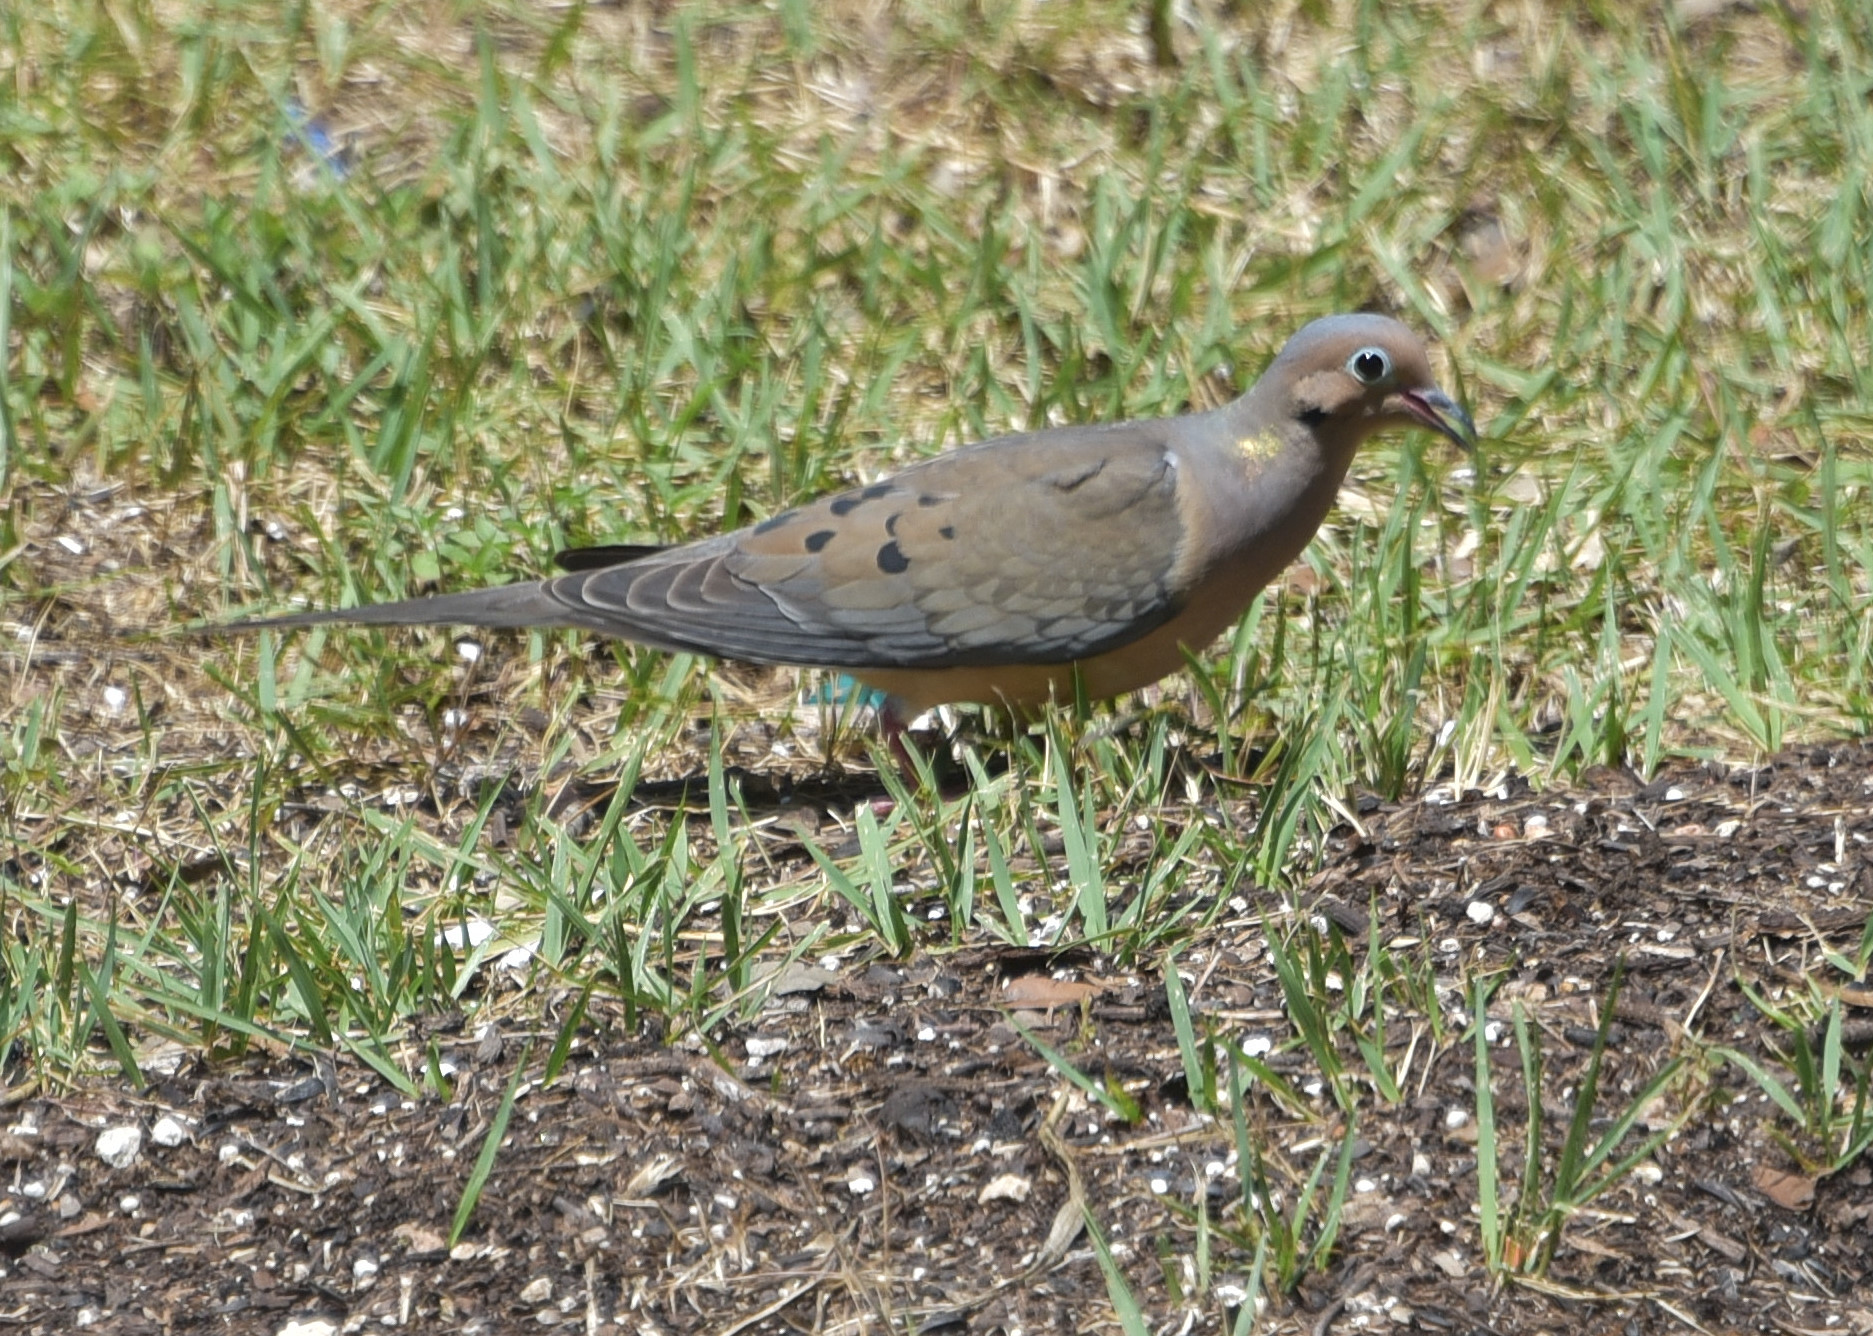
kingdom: Animalia
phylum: Chordata
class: Aves
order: Columbiformes
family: Columbidae
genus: Zenaida
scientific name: Zenaida macroura
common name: Mourning dove
